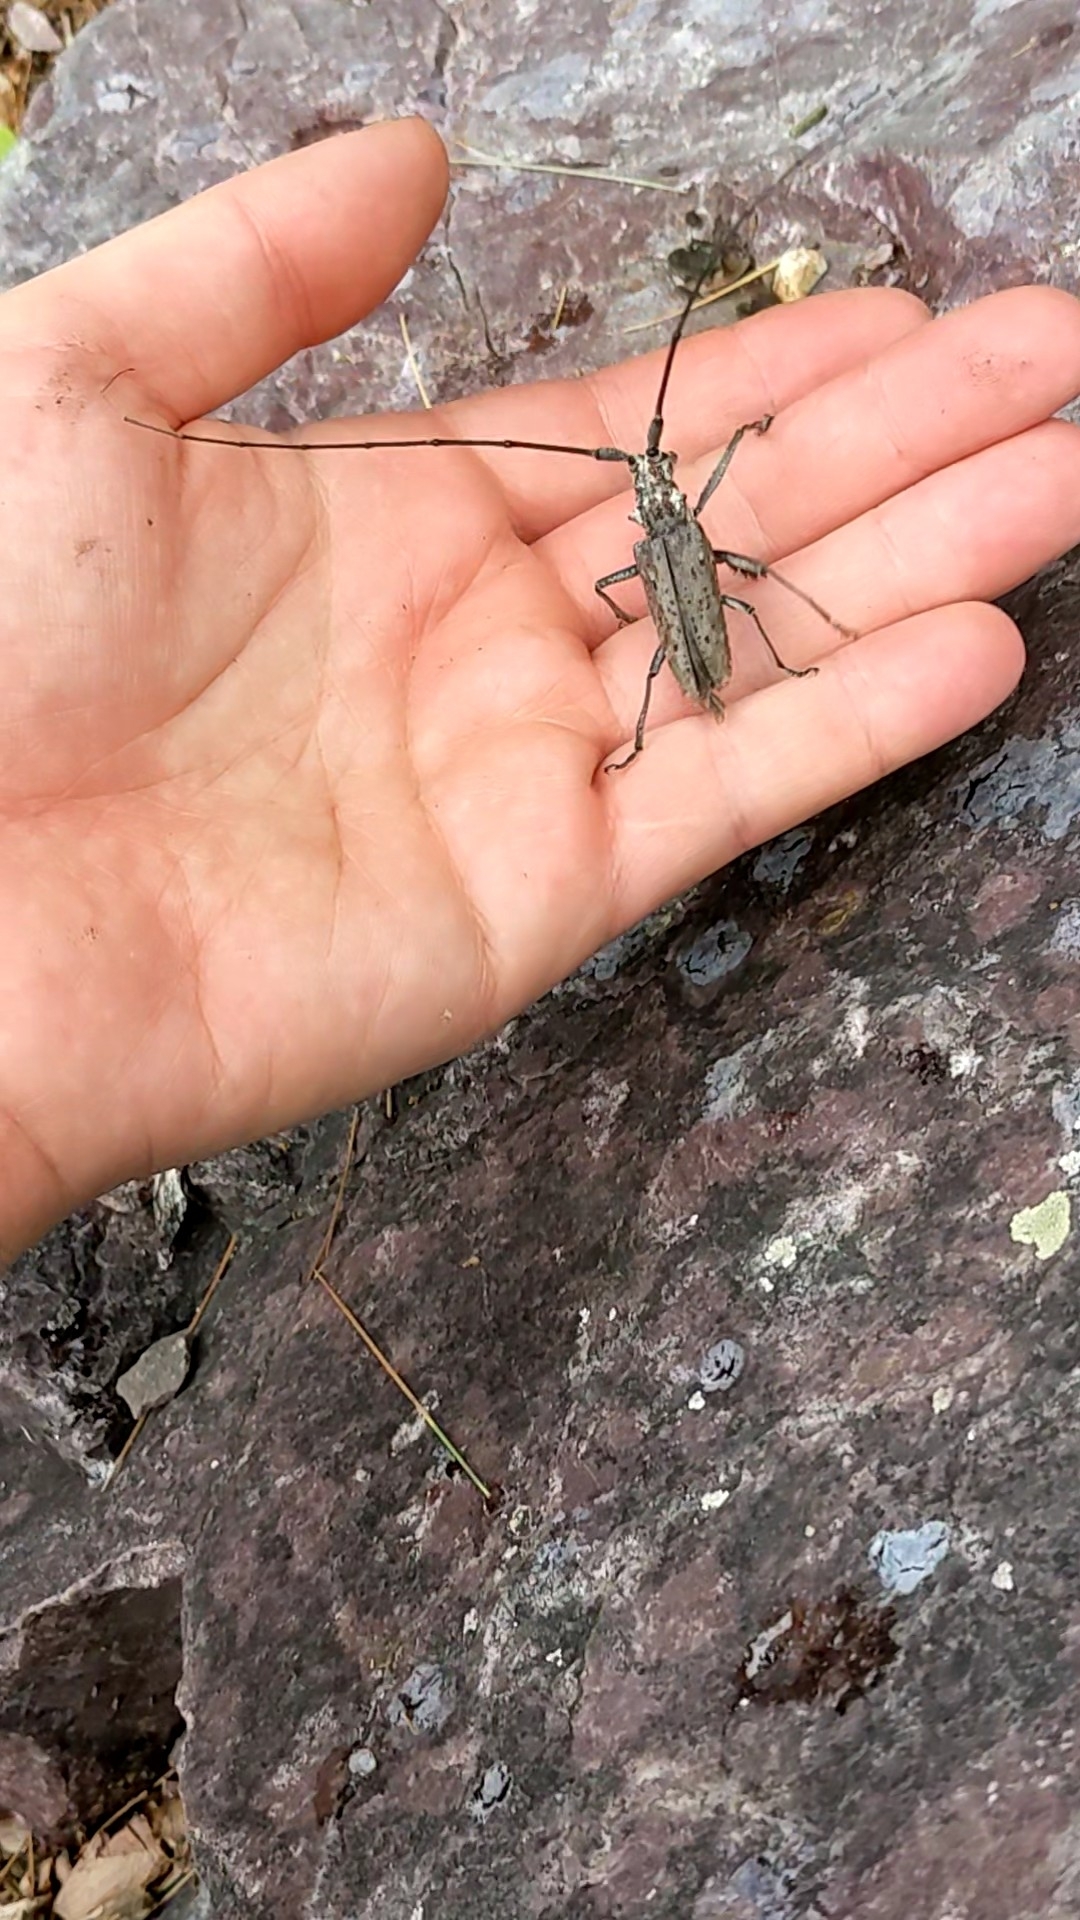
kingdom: Animalia
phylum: Arthropoda
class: Insecta
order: Coleoptera
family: Cerambycidae
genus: Monochamus
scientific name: Monochamus notatus
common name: Northeastern pine sawyer beetle
